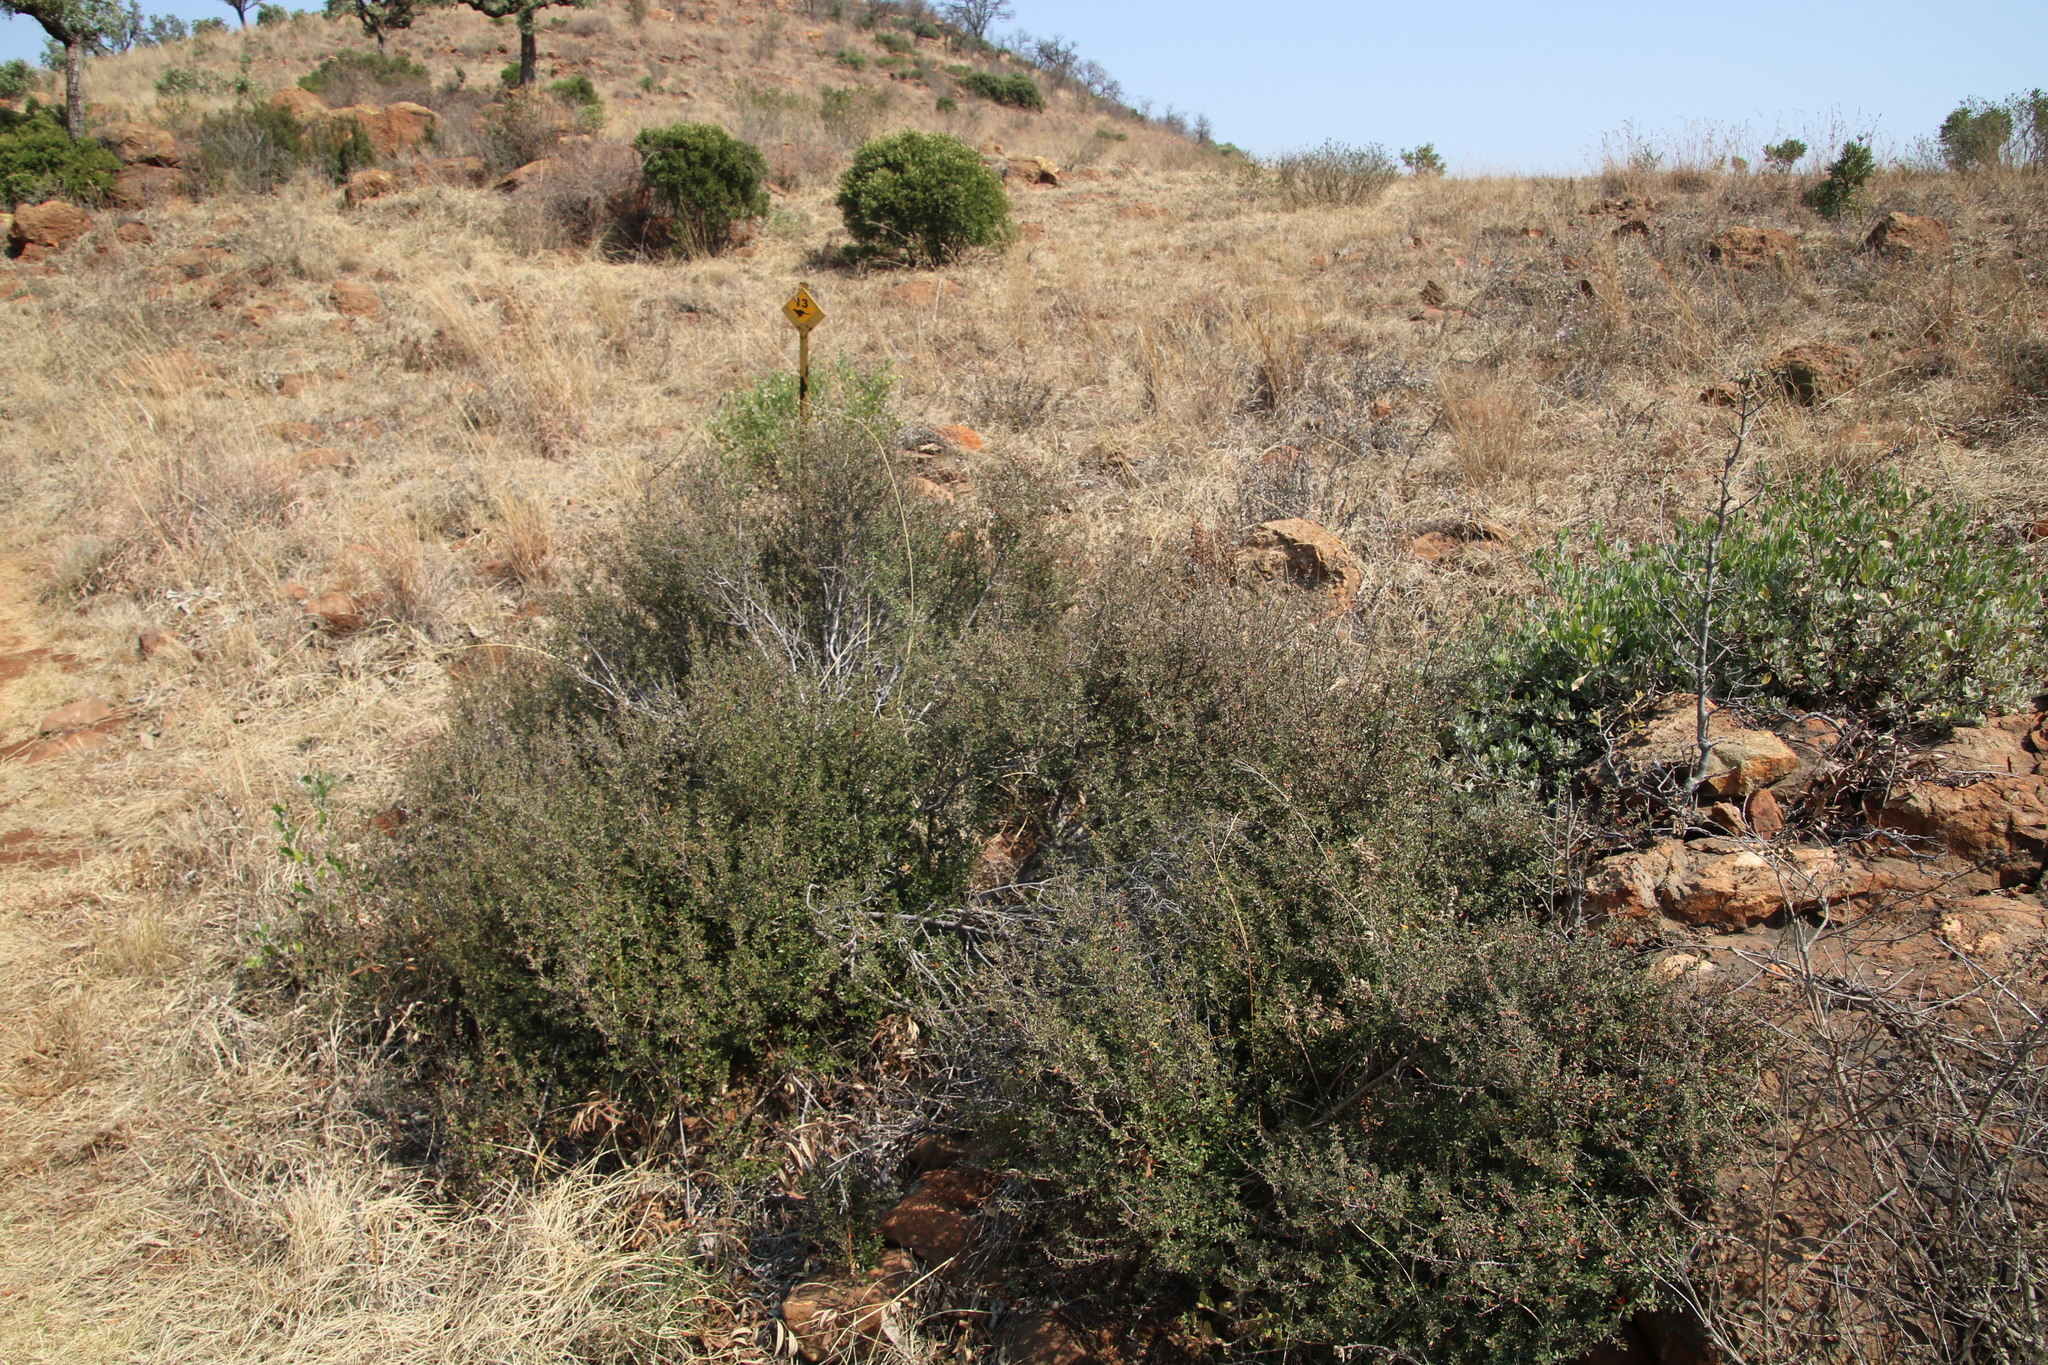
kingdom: Plantae
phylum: Tracheophyta
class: Magnoliopsida
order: Ericales
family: Ebenaceae
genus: Diospyros
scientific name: Diospyros lycioides
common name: Red star apple
